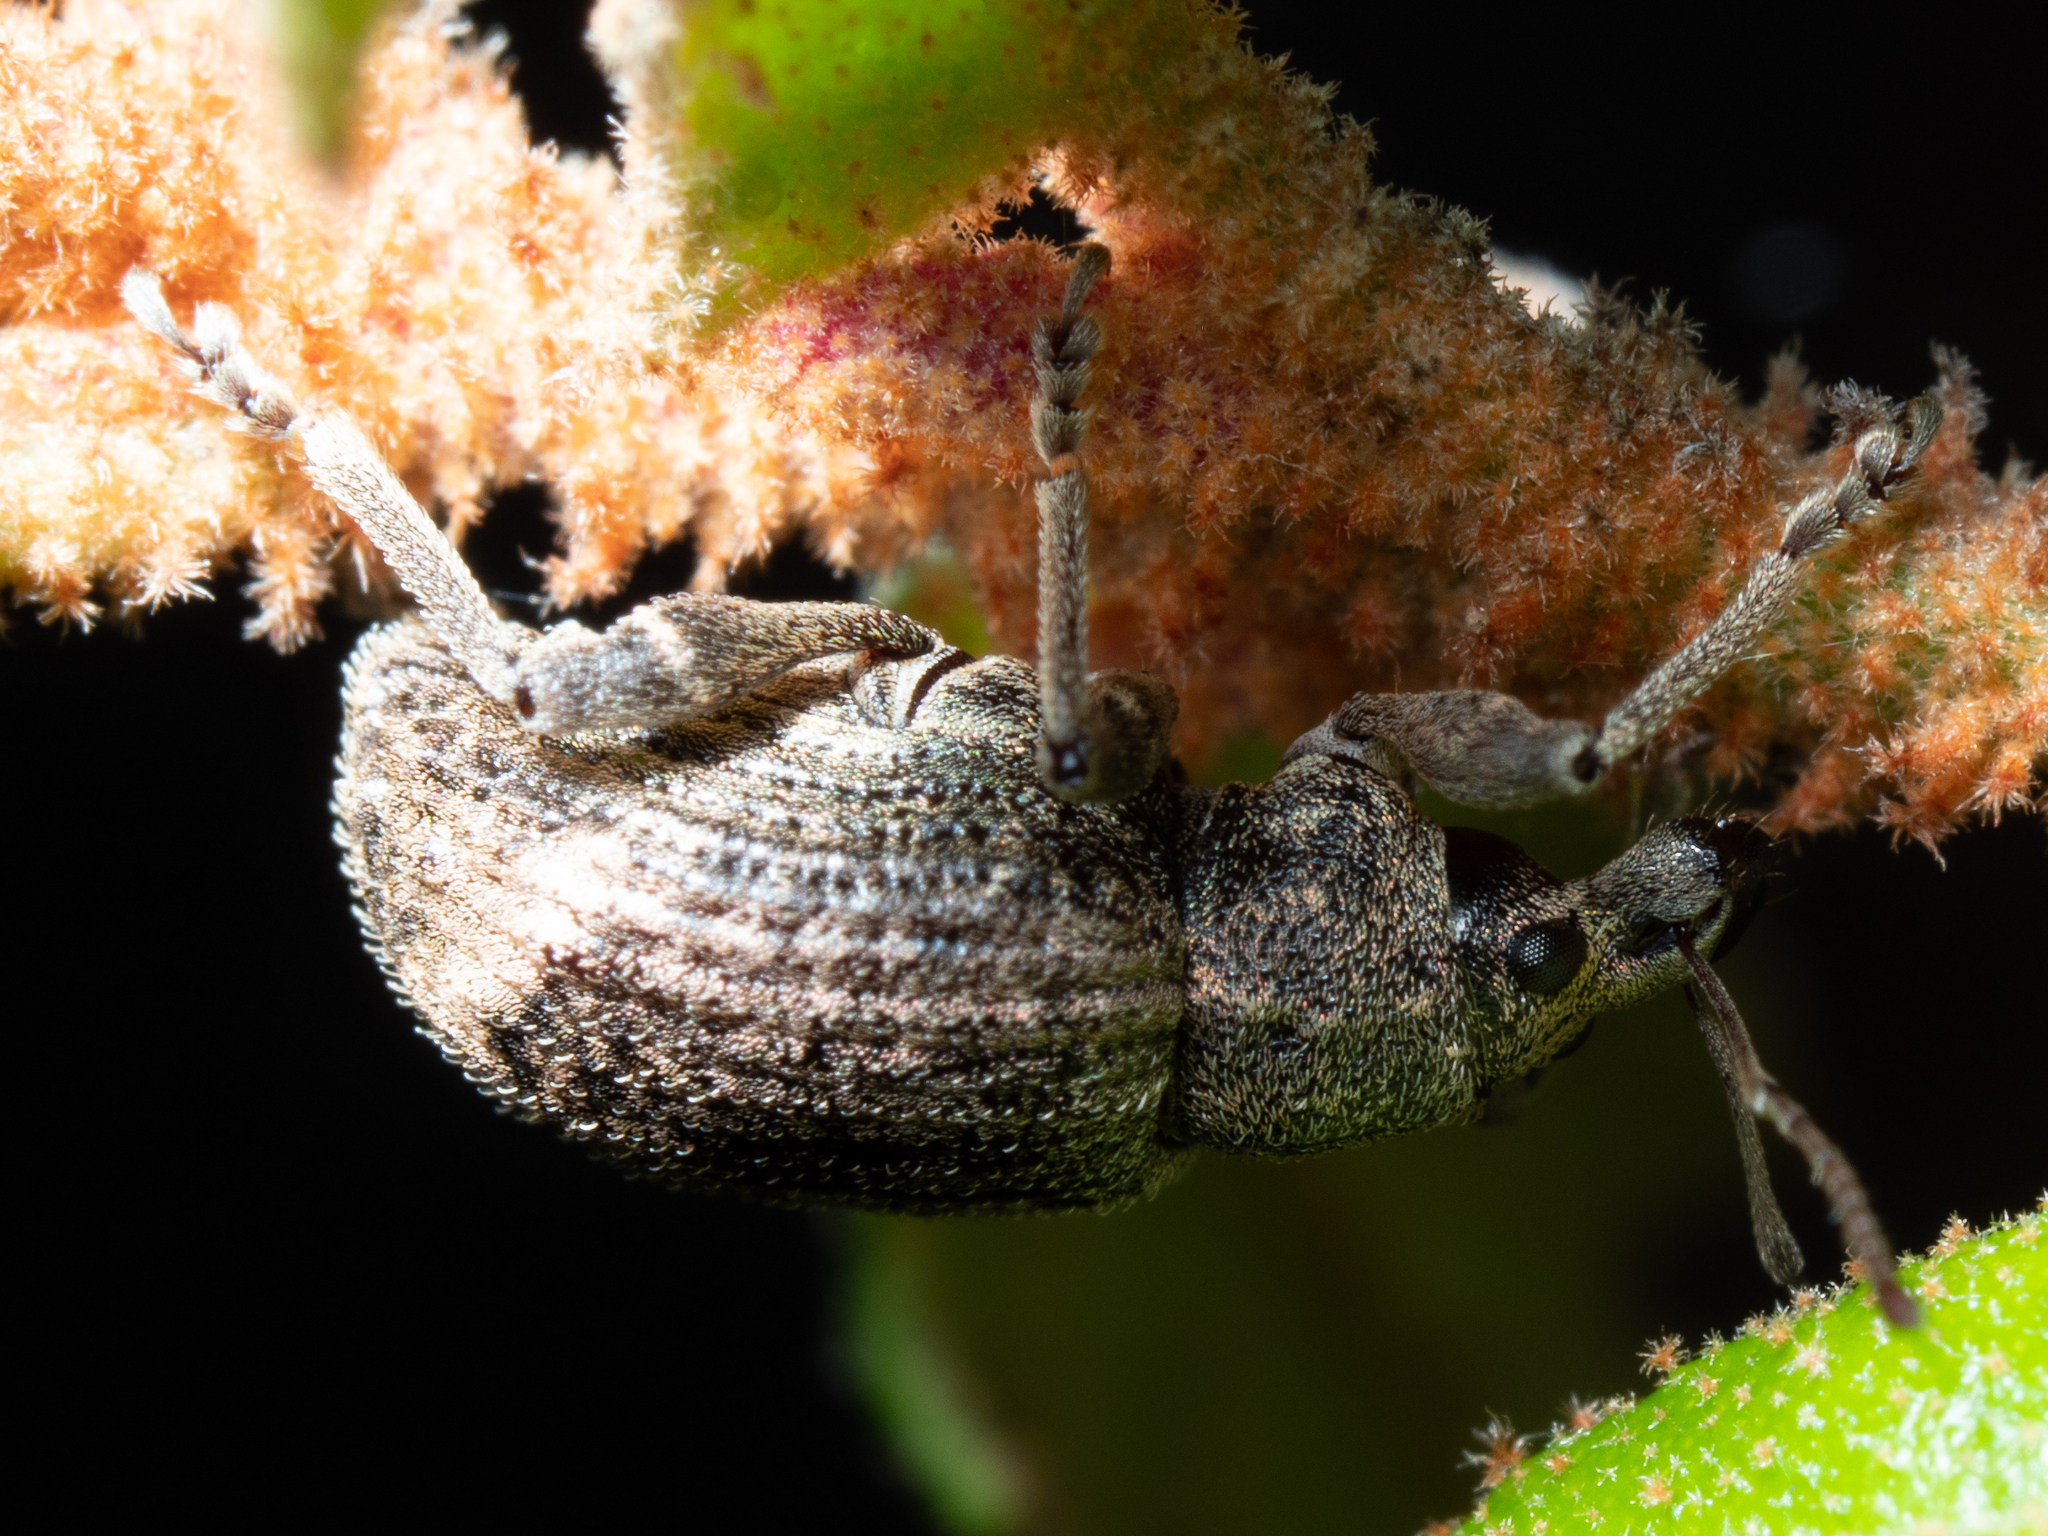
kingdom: Animalia
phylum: Arthropoda
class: Insecta
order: Coleoptera
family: Curculionidae
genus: Phlyctinus
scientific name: Phlyctinus callosus
